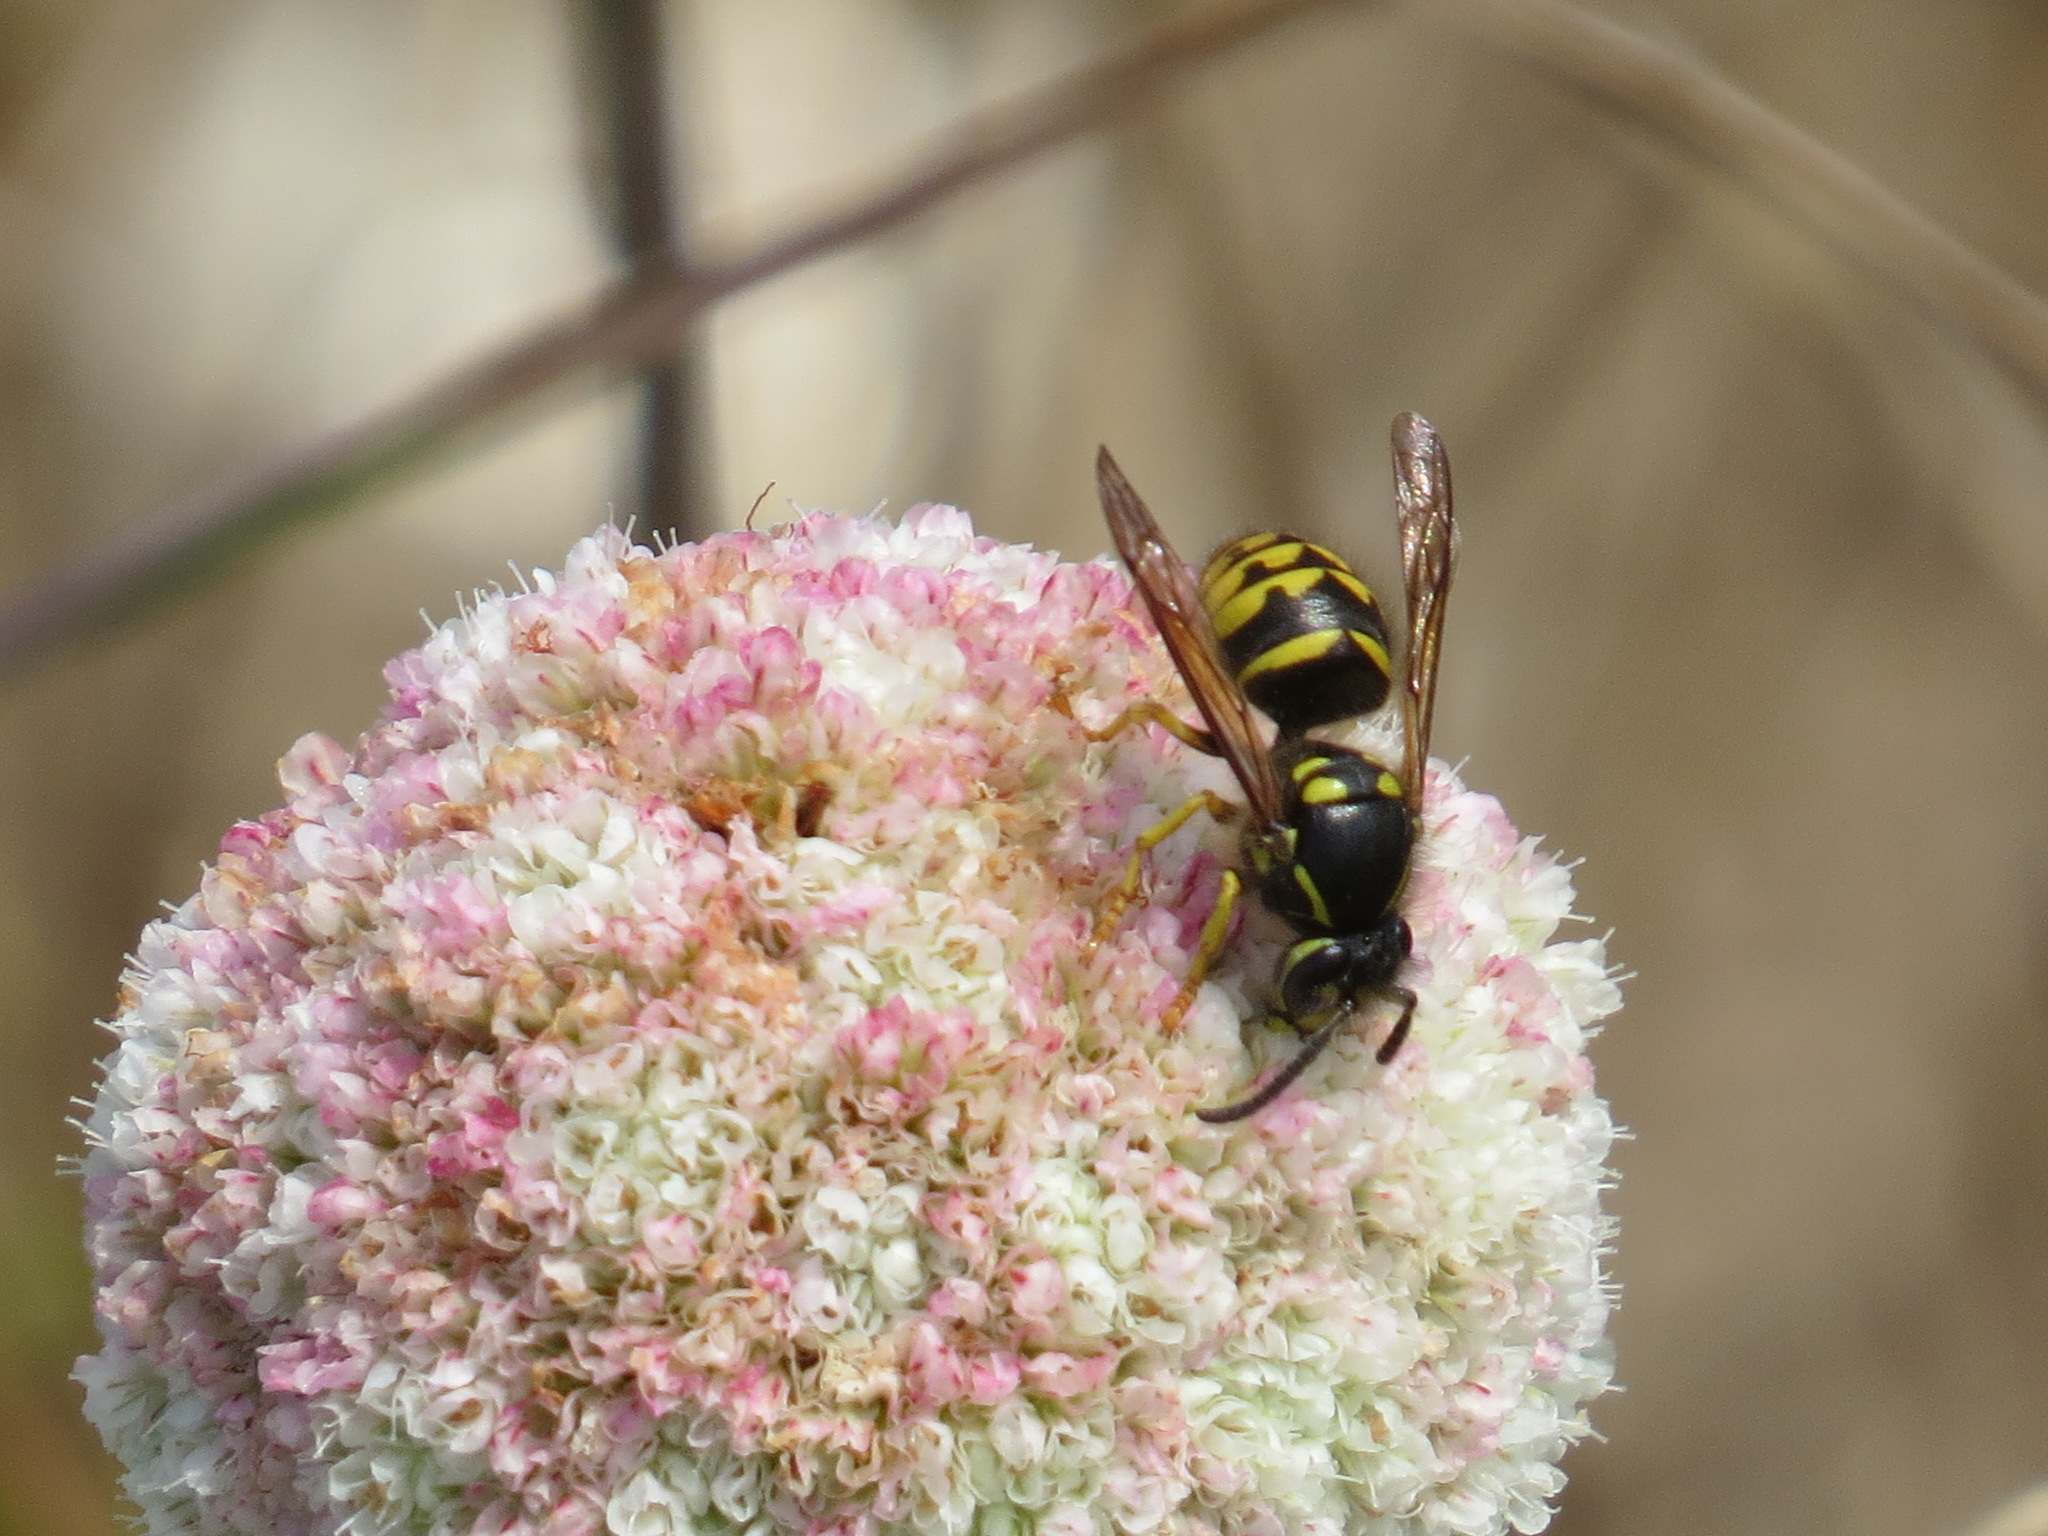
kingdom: Animalia
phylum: Arthropoda
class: Insecta
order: Hymenoptera
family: Vespidae
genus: Dolichovespula
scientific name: Dolichovespula arenaria
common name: Aerial yellowjacket
